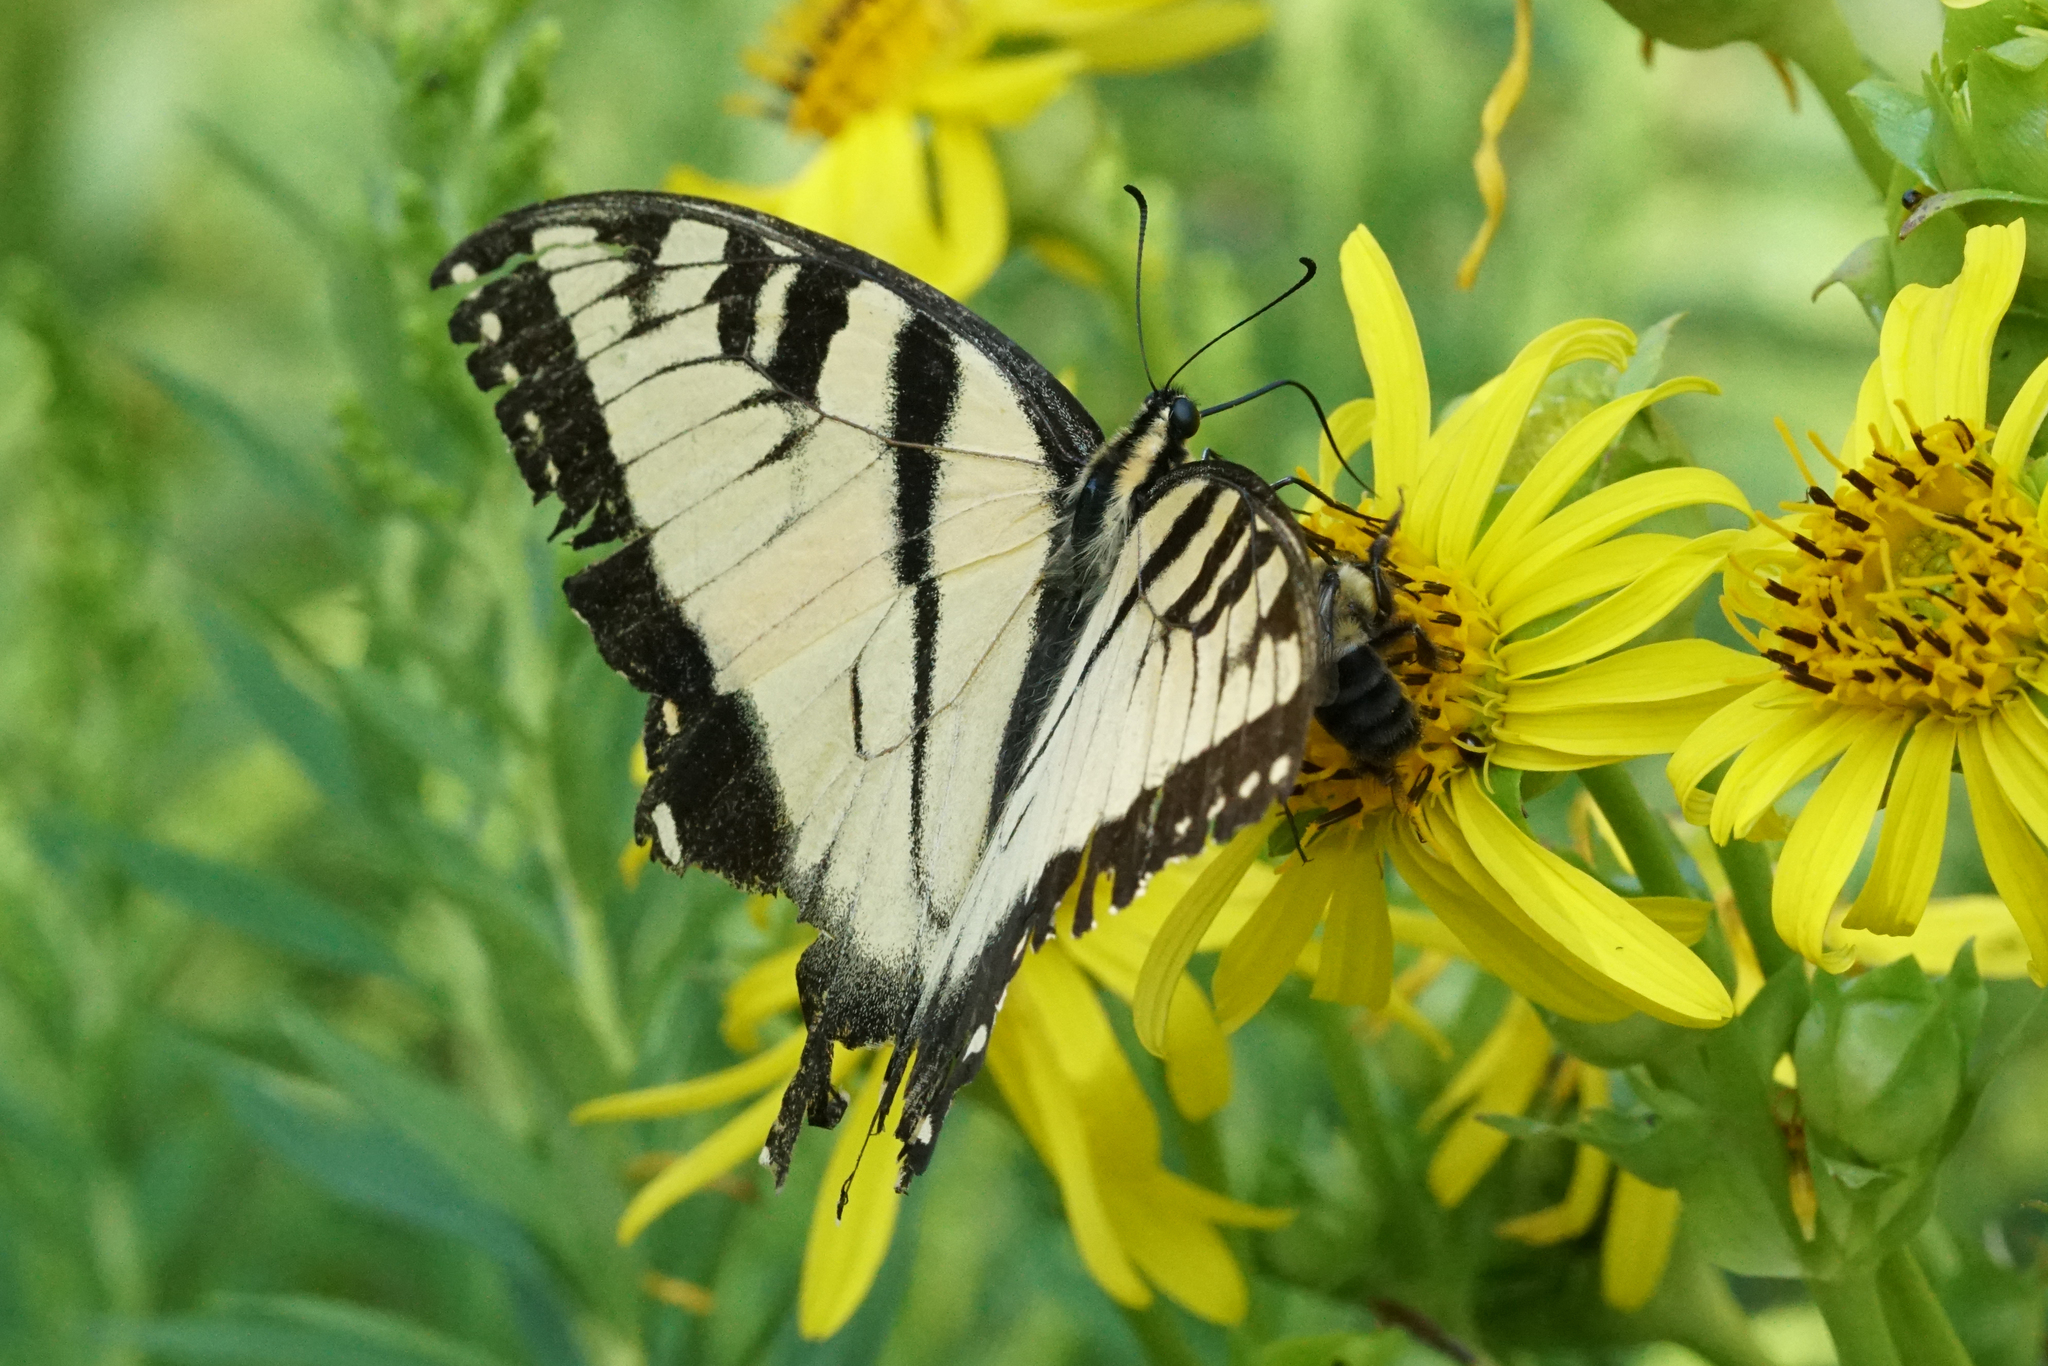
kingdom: Animalia
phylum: Arthropoda
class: Insecta
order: Lepidoptera
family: Papilionidae
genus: Papilio
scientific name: Papilio glaucus
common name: Tiger swallowtail
